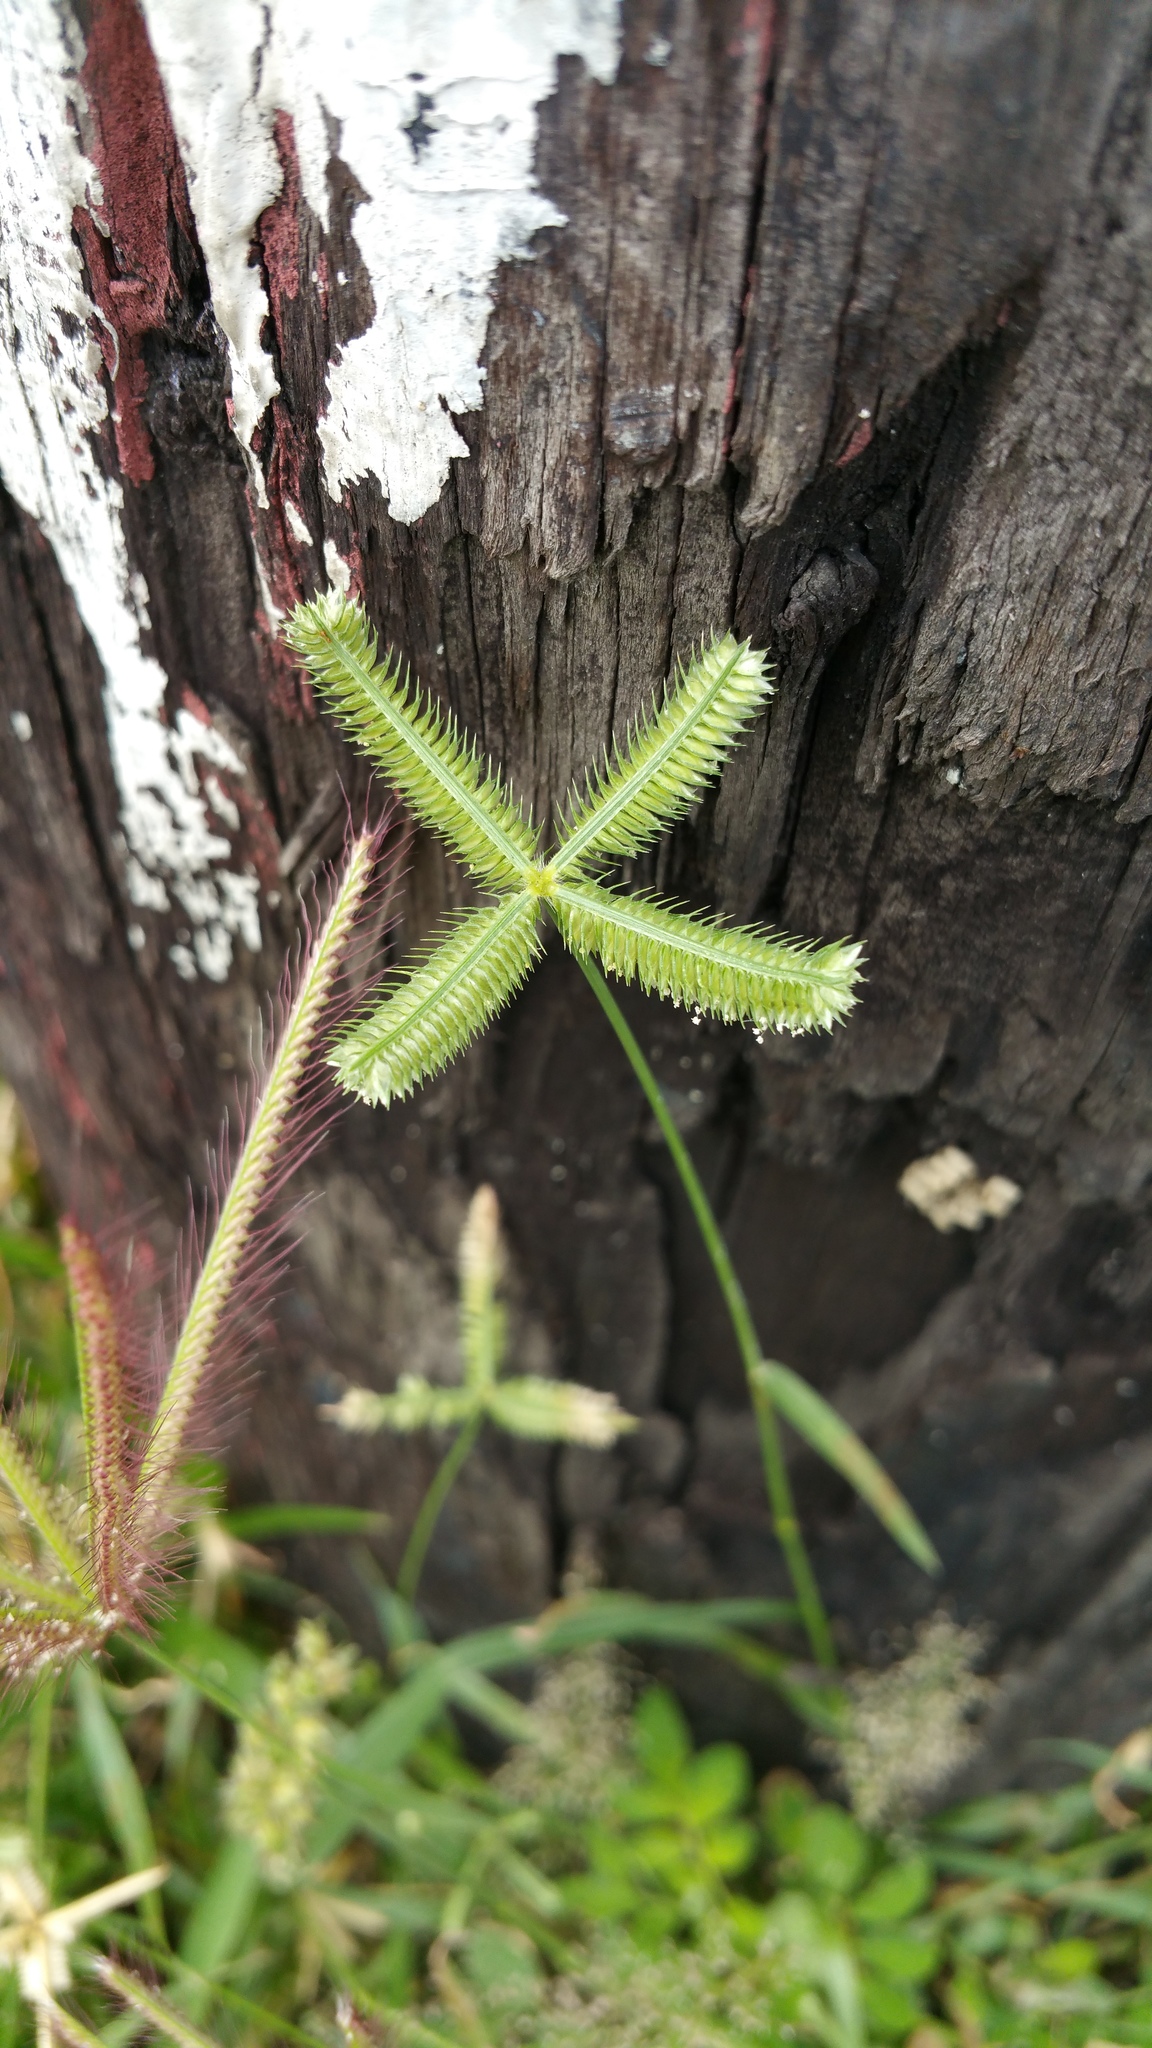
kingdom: Plantae
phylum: Tracheophyta
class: Liliopsida
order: Poales
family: Poaceae
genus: Dactyloctenium
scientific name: Dactyloctenium aegyptium
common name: Egyptian grass
